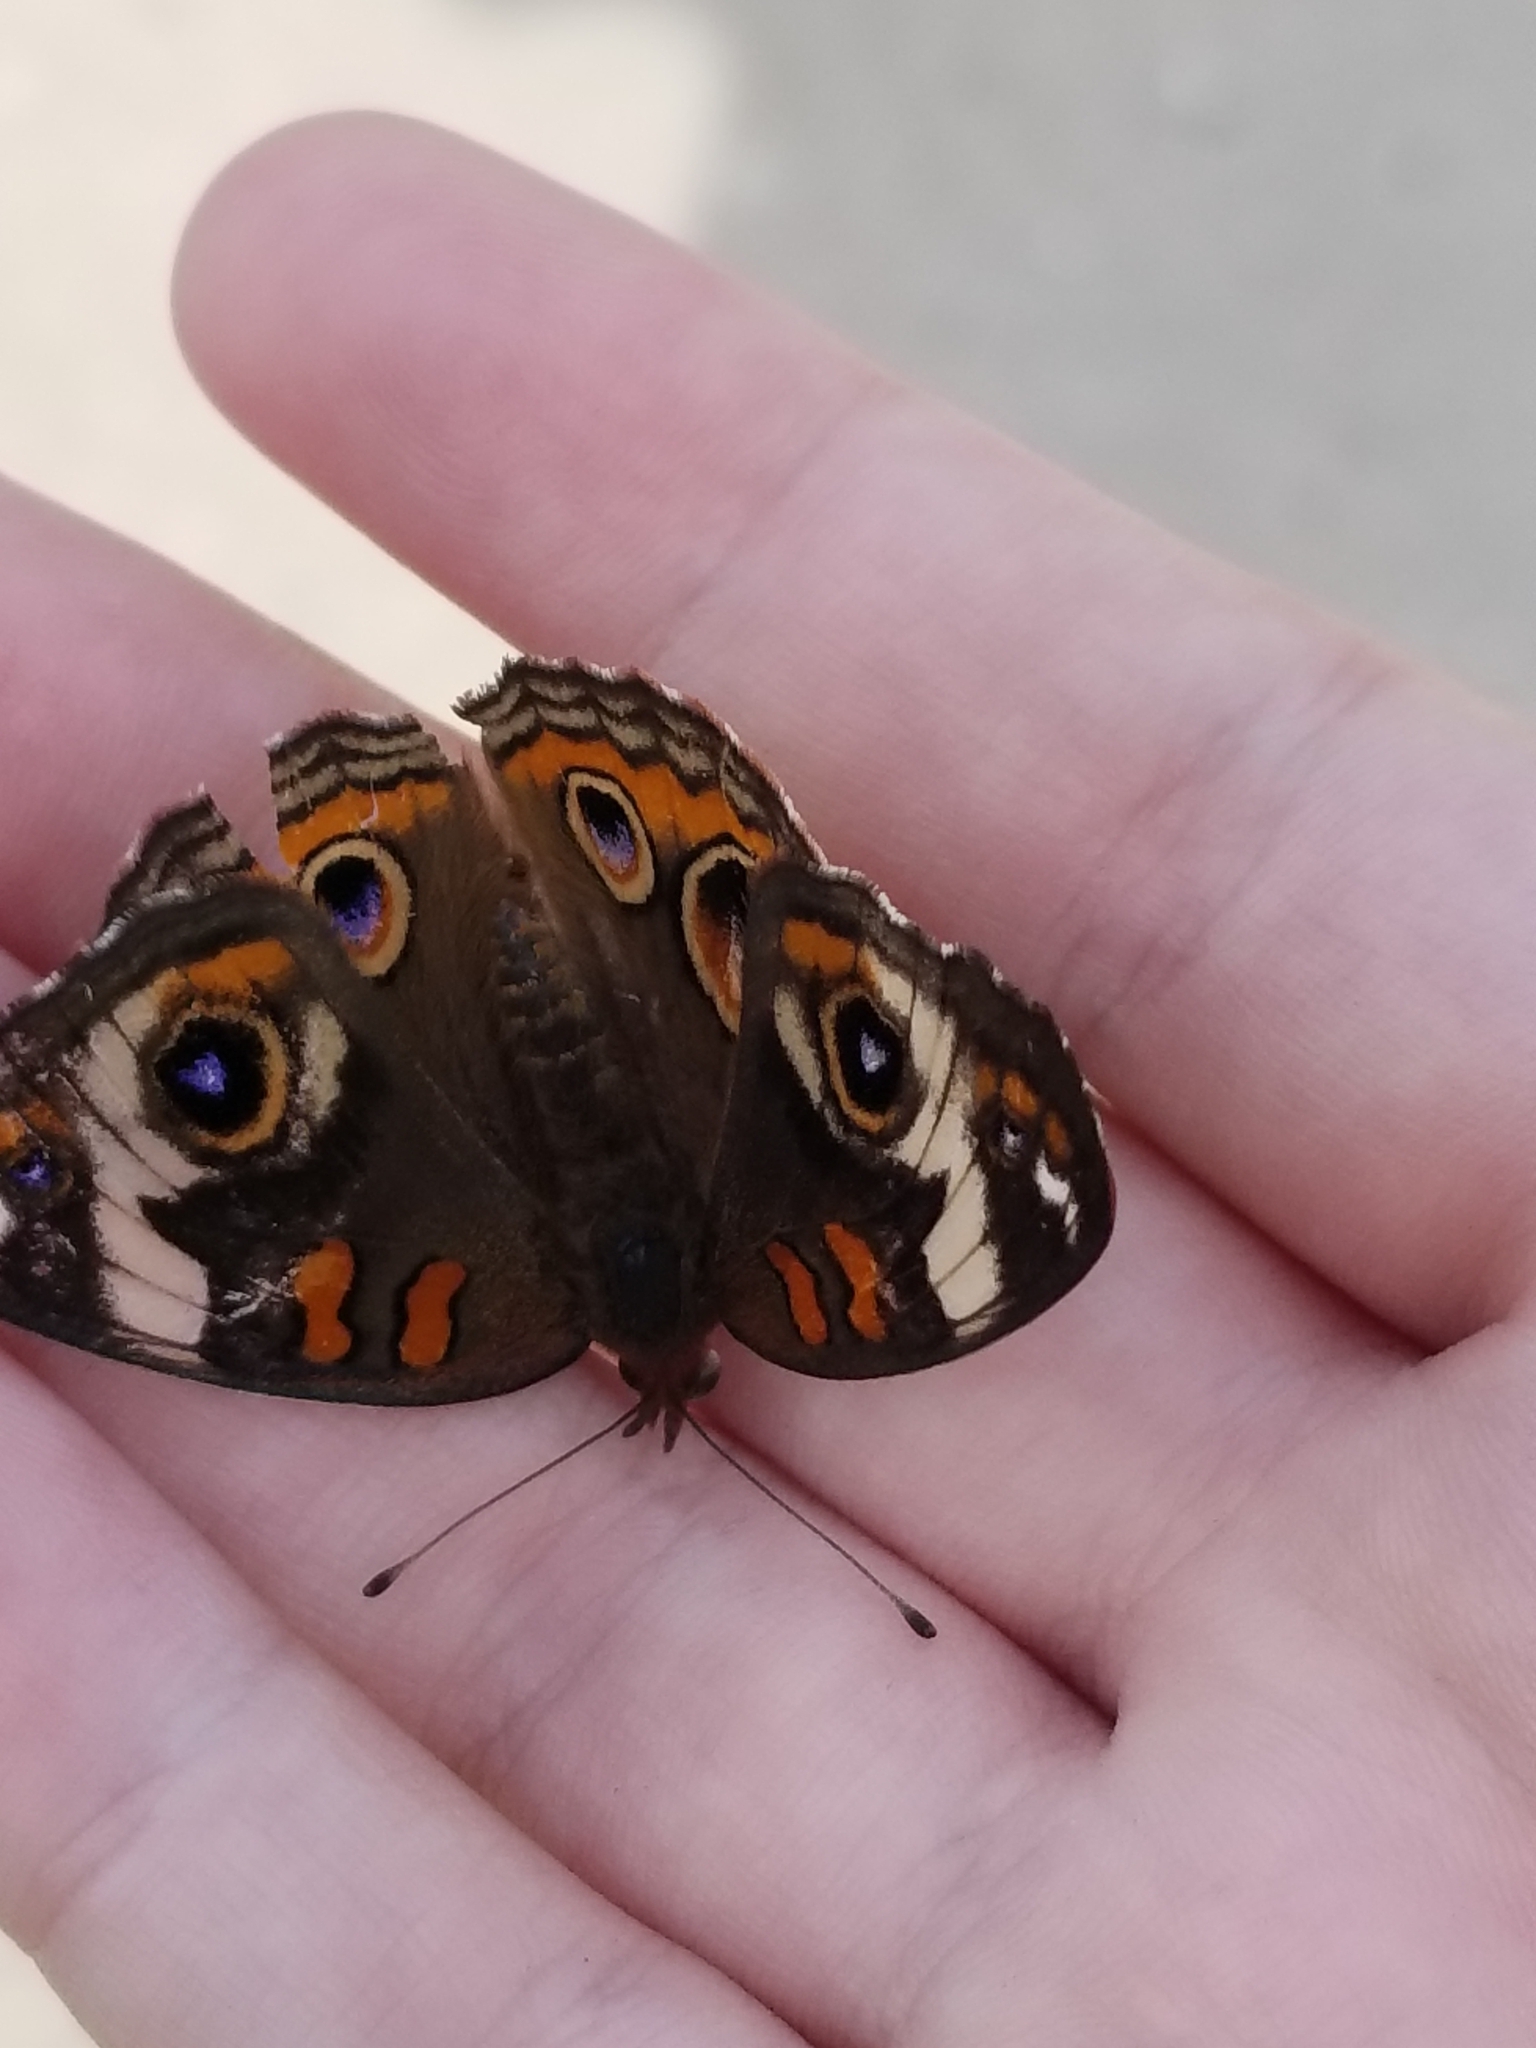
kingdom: Animalia
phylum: Arthropoda
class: Insecta
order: Lepidoptera
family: Nymphalidae
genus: Junonia
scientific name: Junonia coenia
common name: Common buckeye
